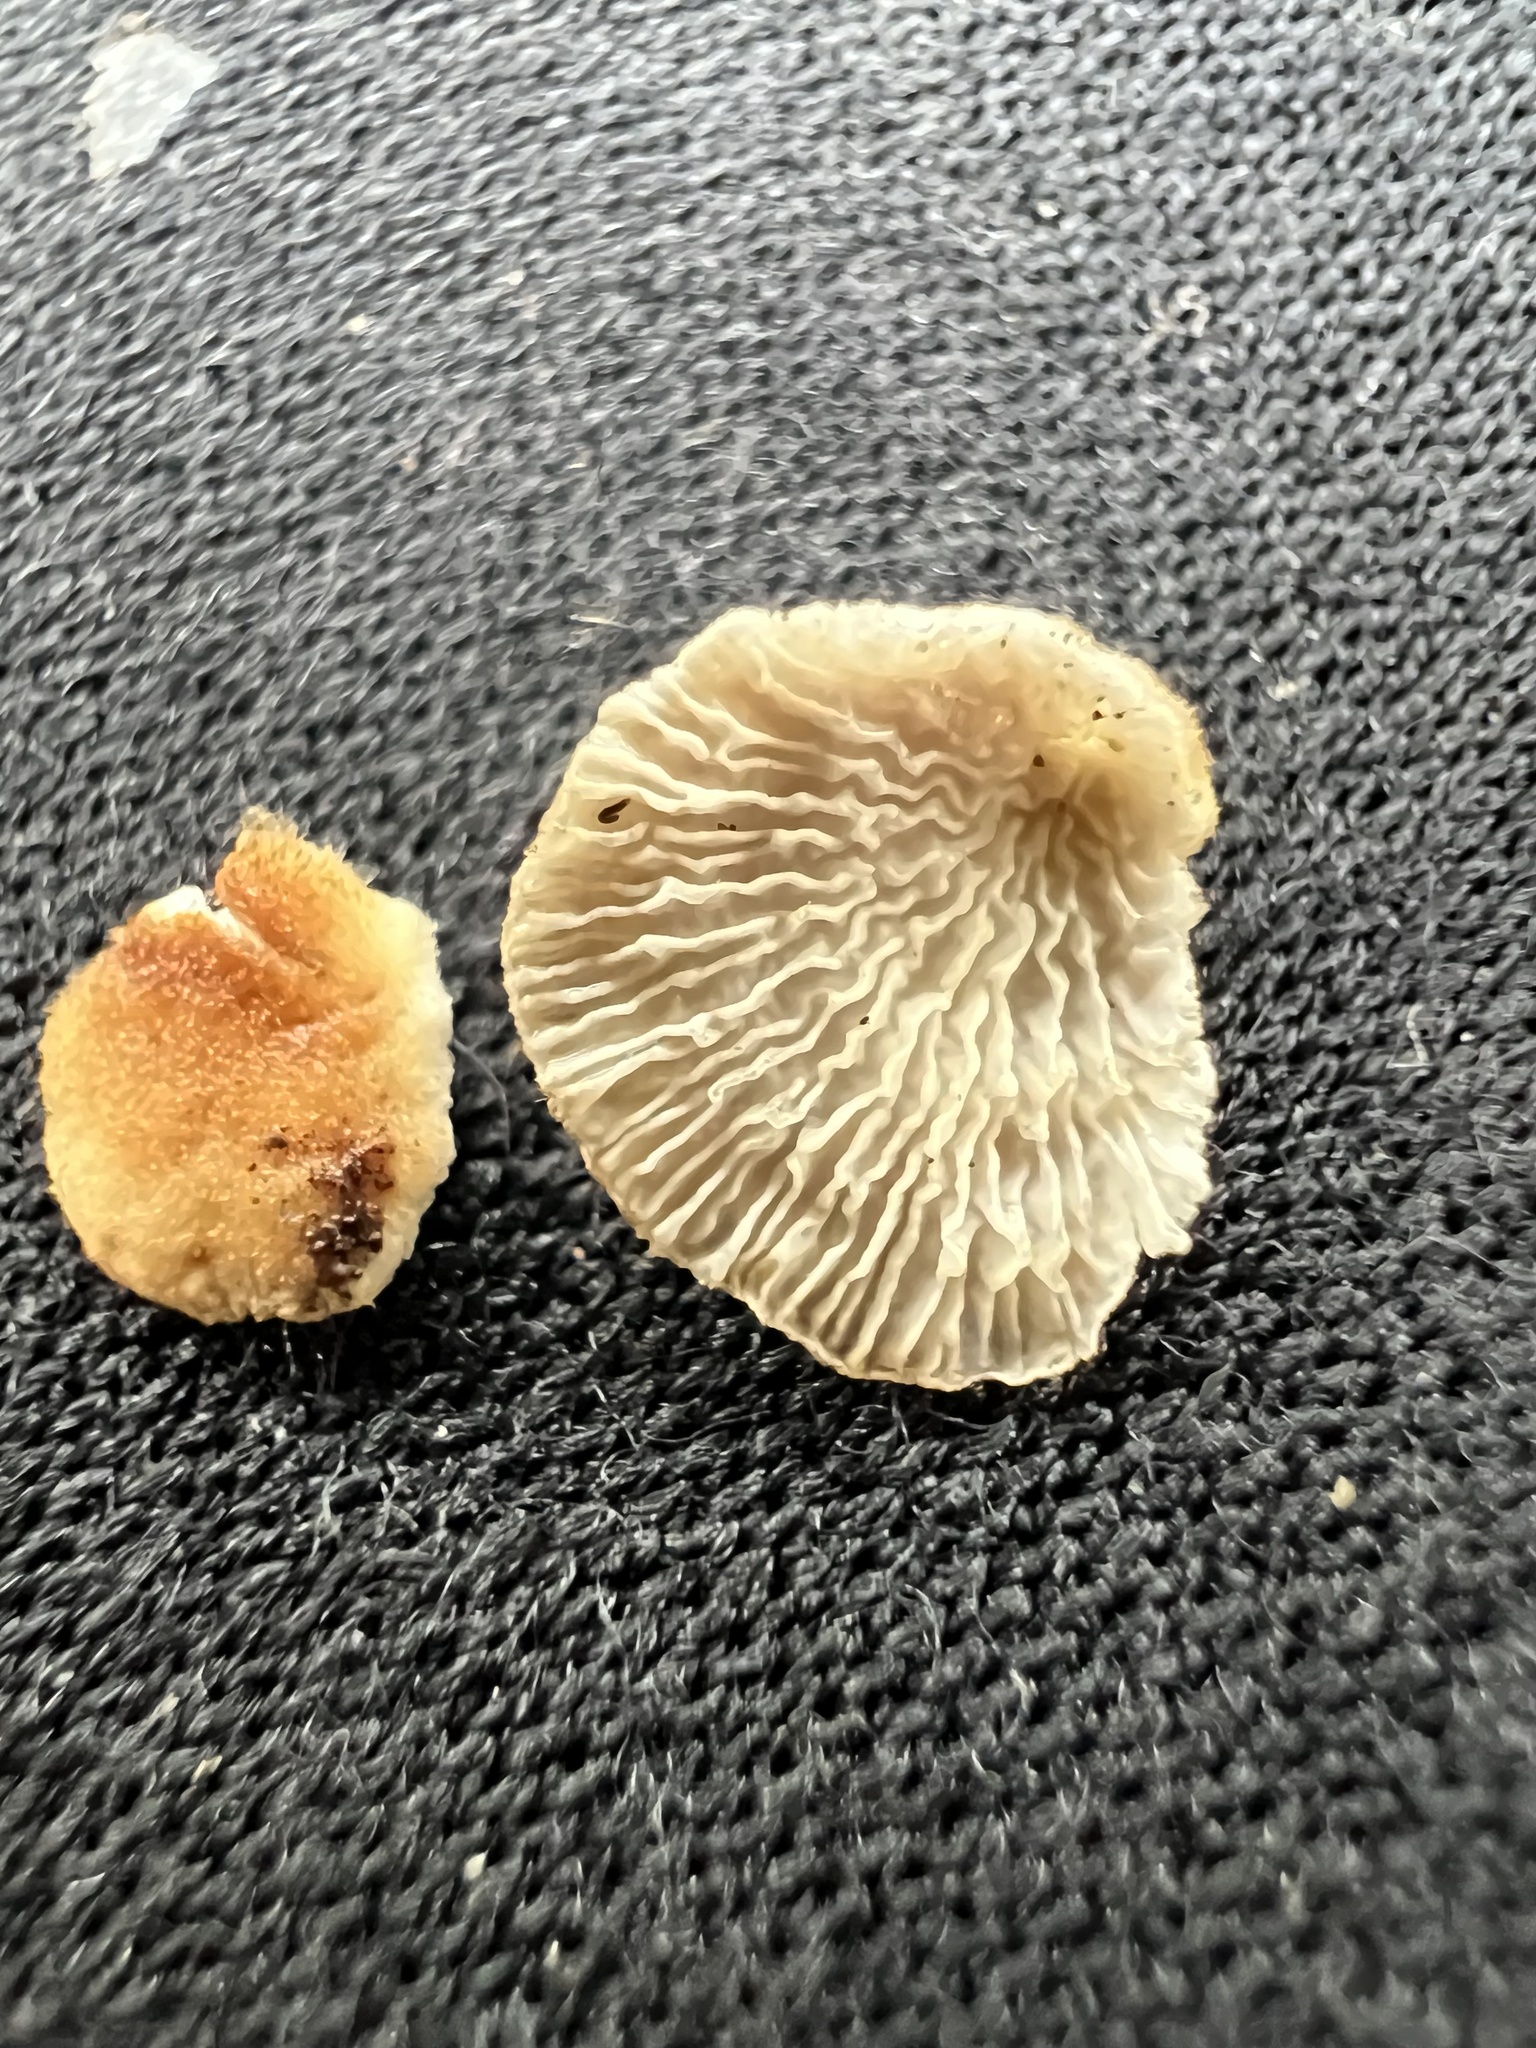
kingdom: Fungi
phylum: Basidiomycota
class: Agaricomycetes
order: Amylocorticiales
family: Amylocorticiaceae
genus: Plicaturopsis
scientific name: Plicaturopsis crispa
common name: Crimped gill
